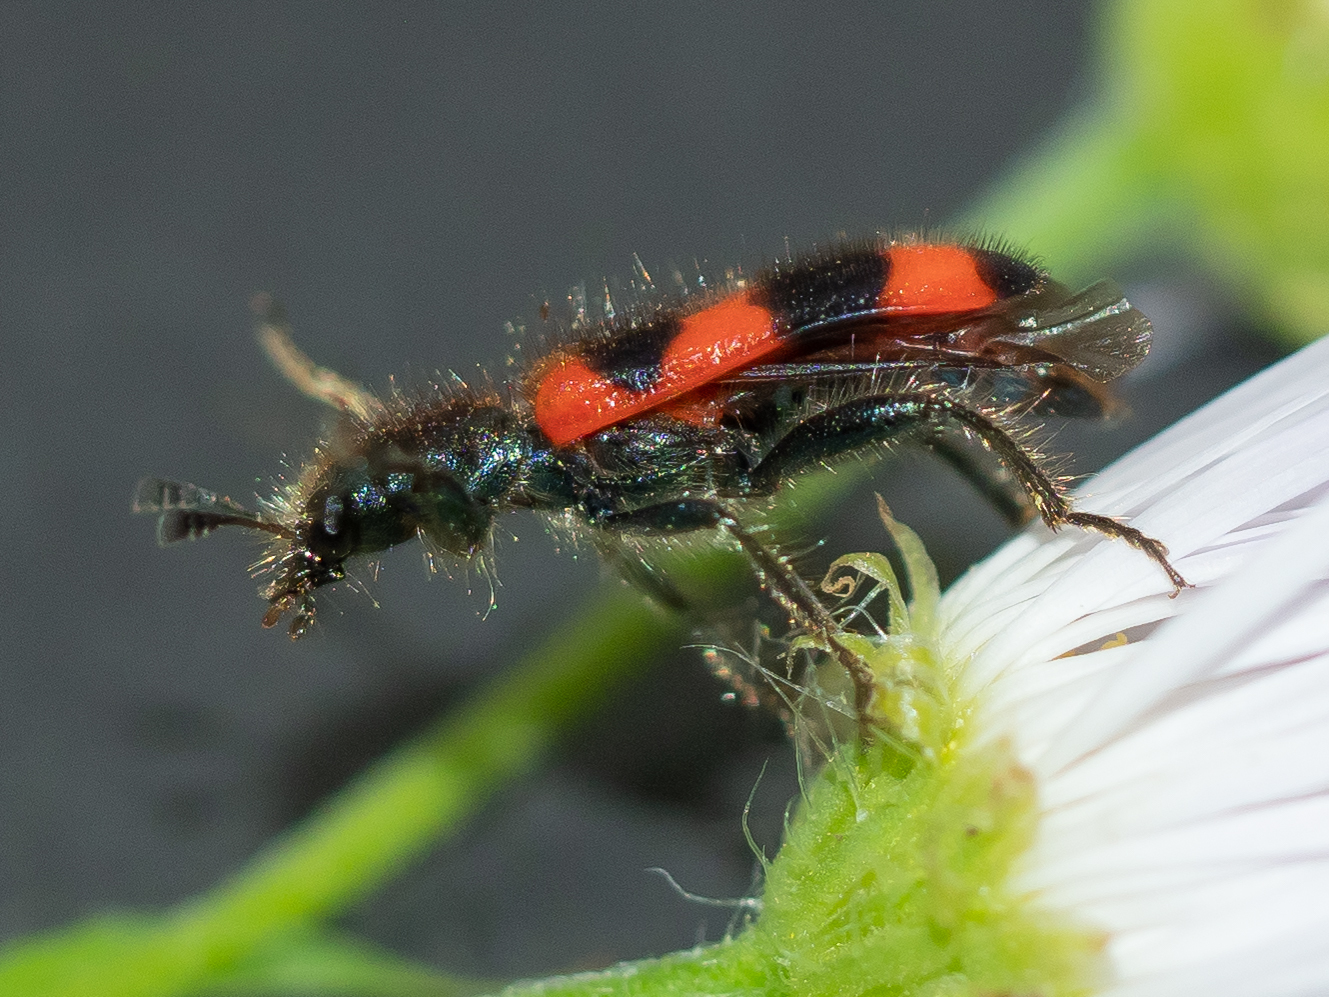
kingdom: Animalia
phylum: Arthropoda
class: Insecta
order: Coleoptera
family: Cleridae
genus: Trichodes
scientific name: Trichodes apiarius
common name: Bee-eating beetle
